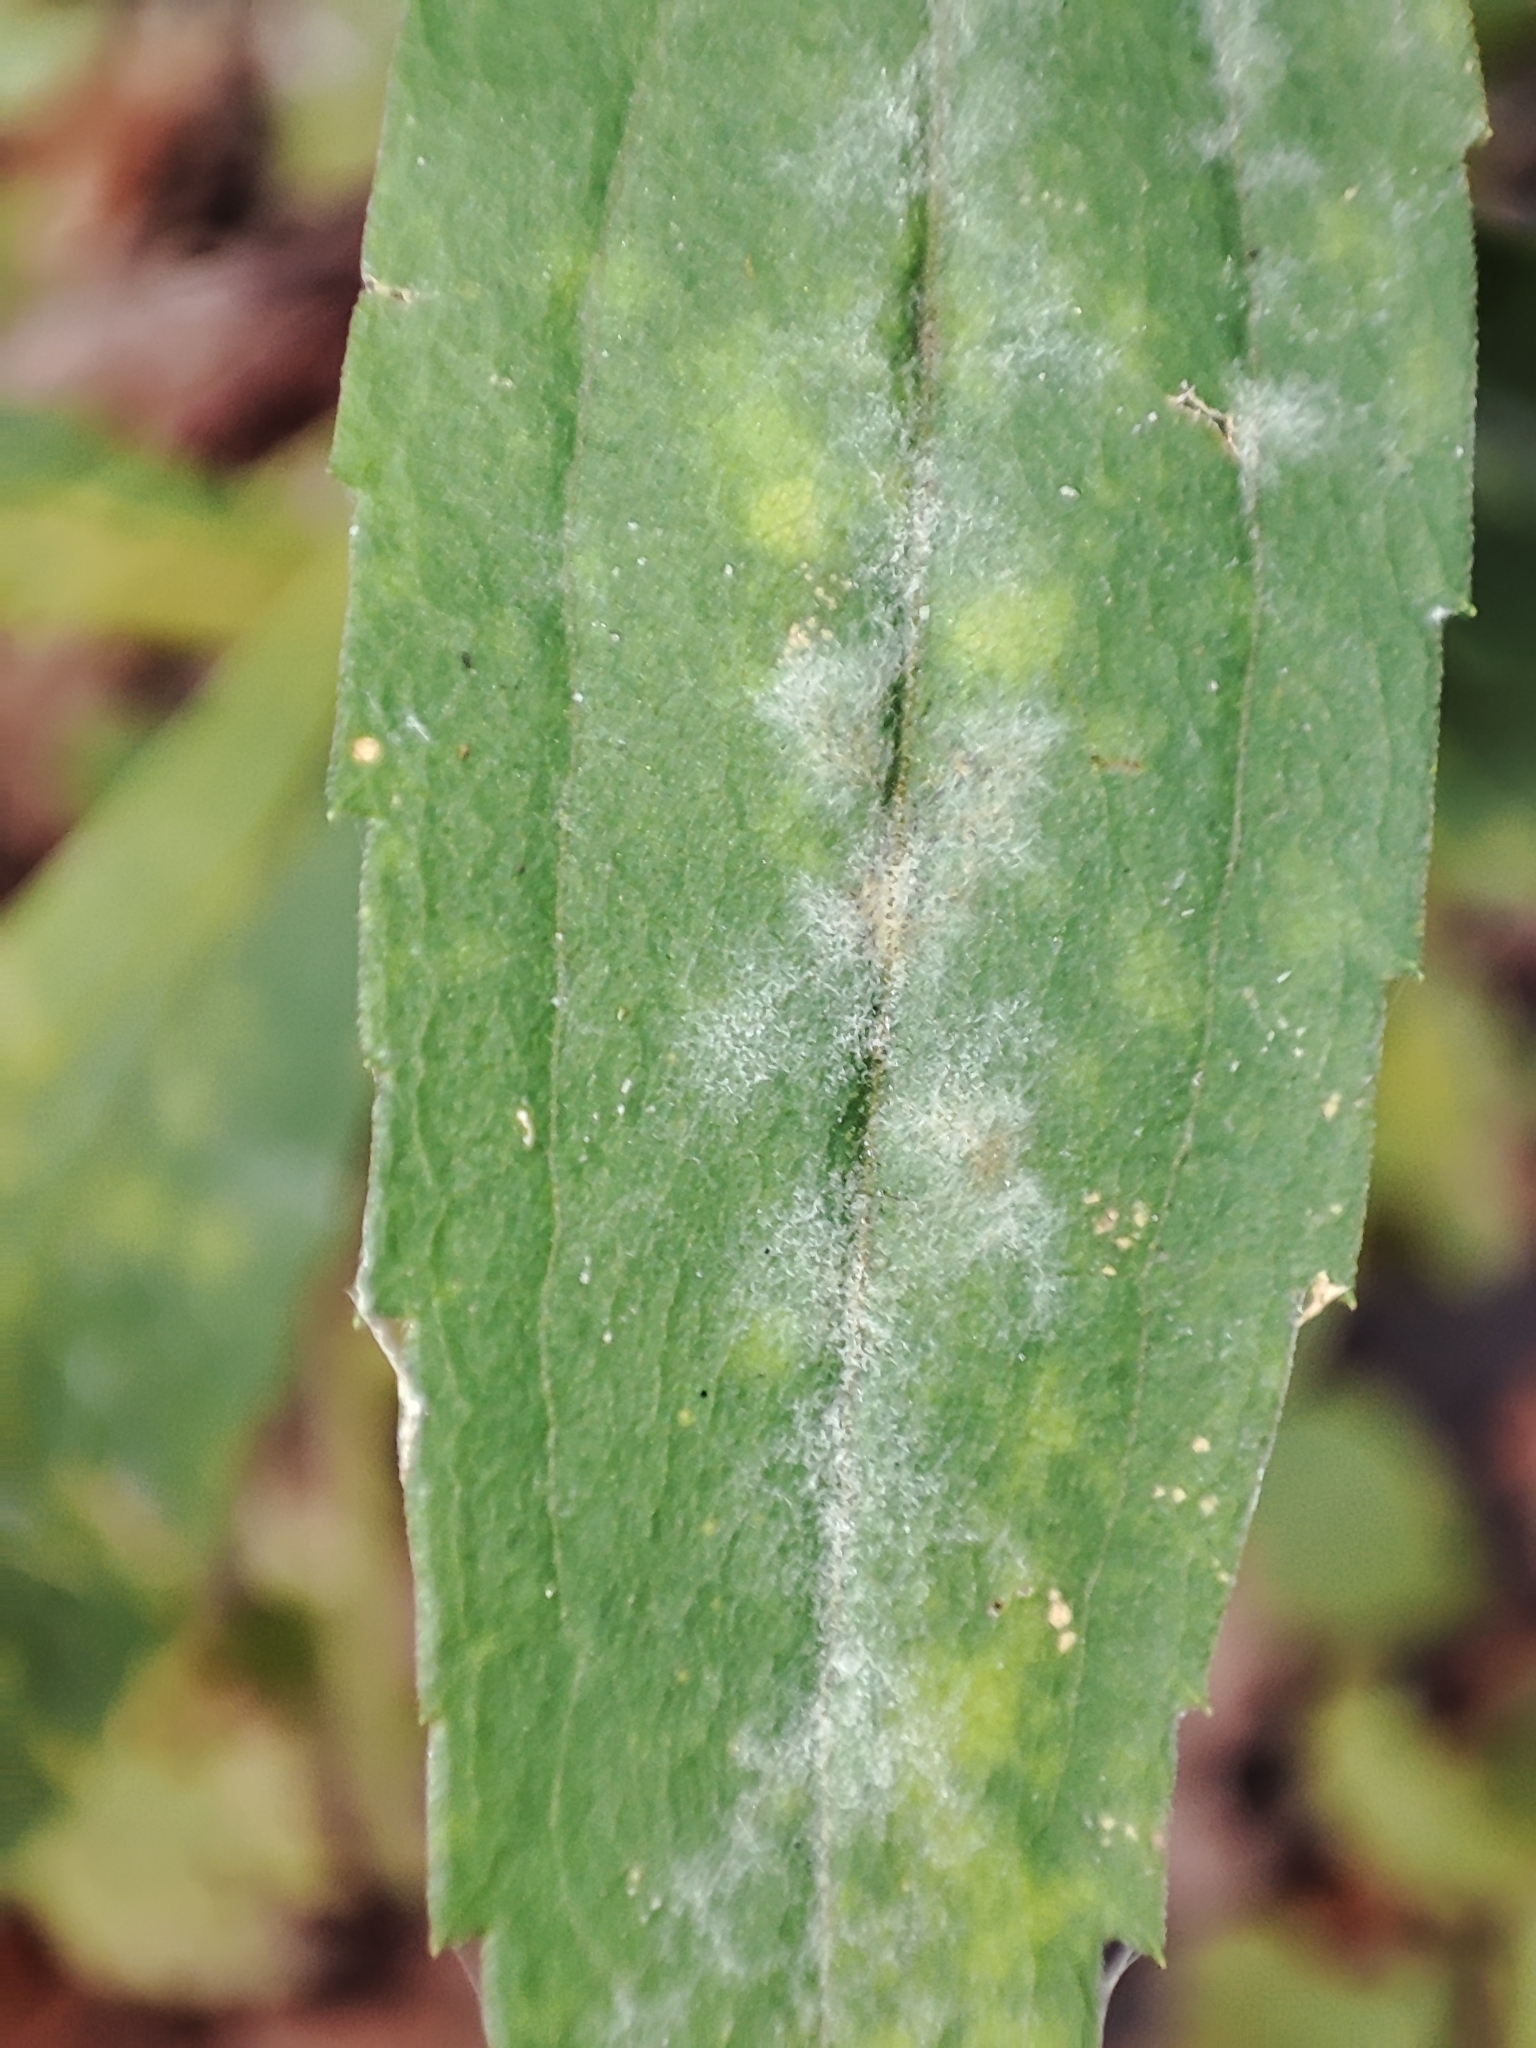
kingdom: Fungi
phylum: Ascomycota
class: Leotiomycetes
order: Helotiales
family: Erysiphaceae
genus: Golovinomyces
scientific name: Golovinomyces asterum
